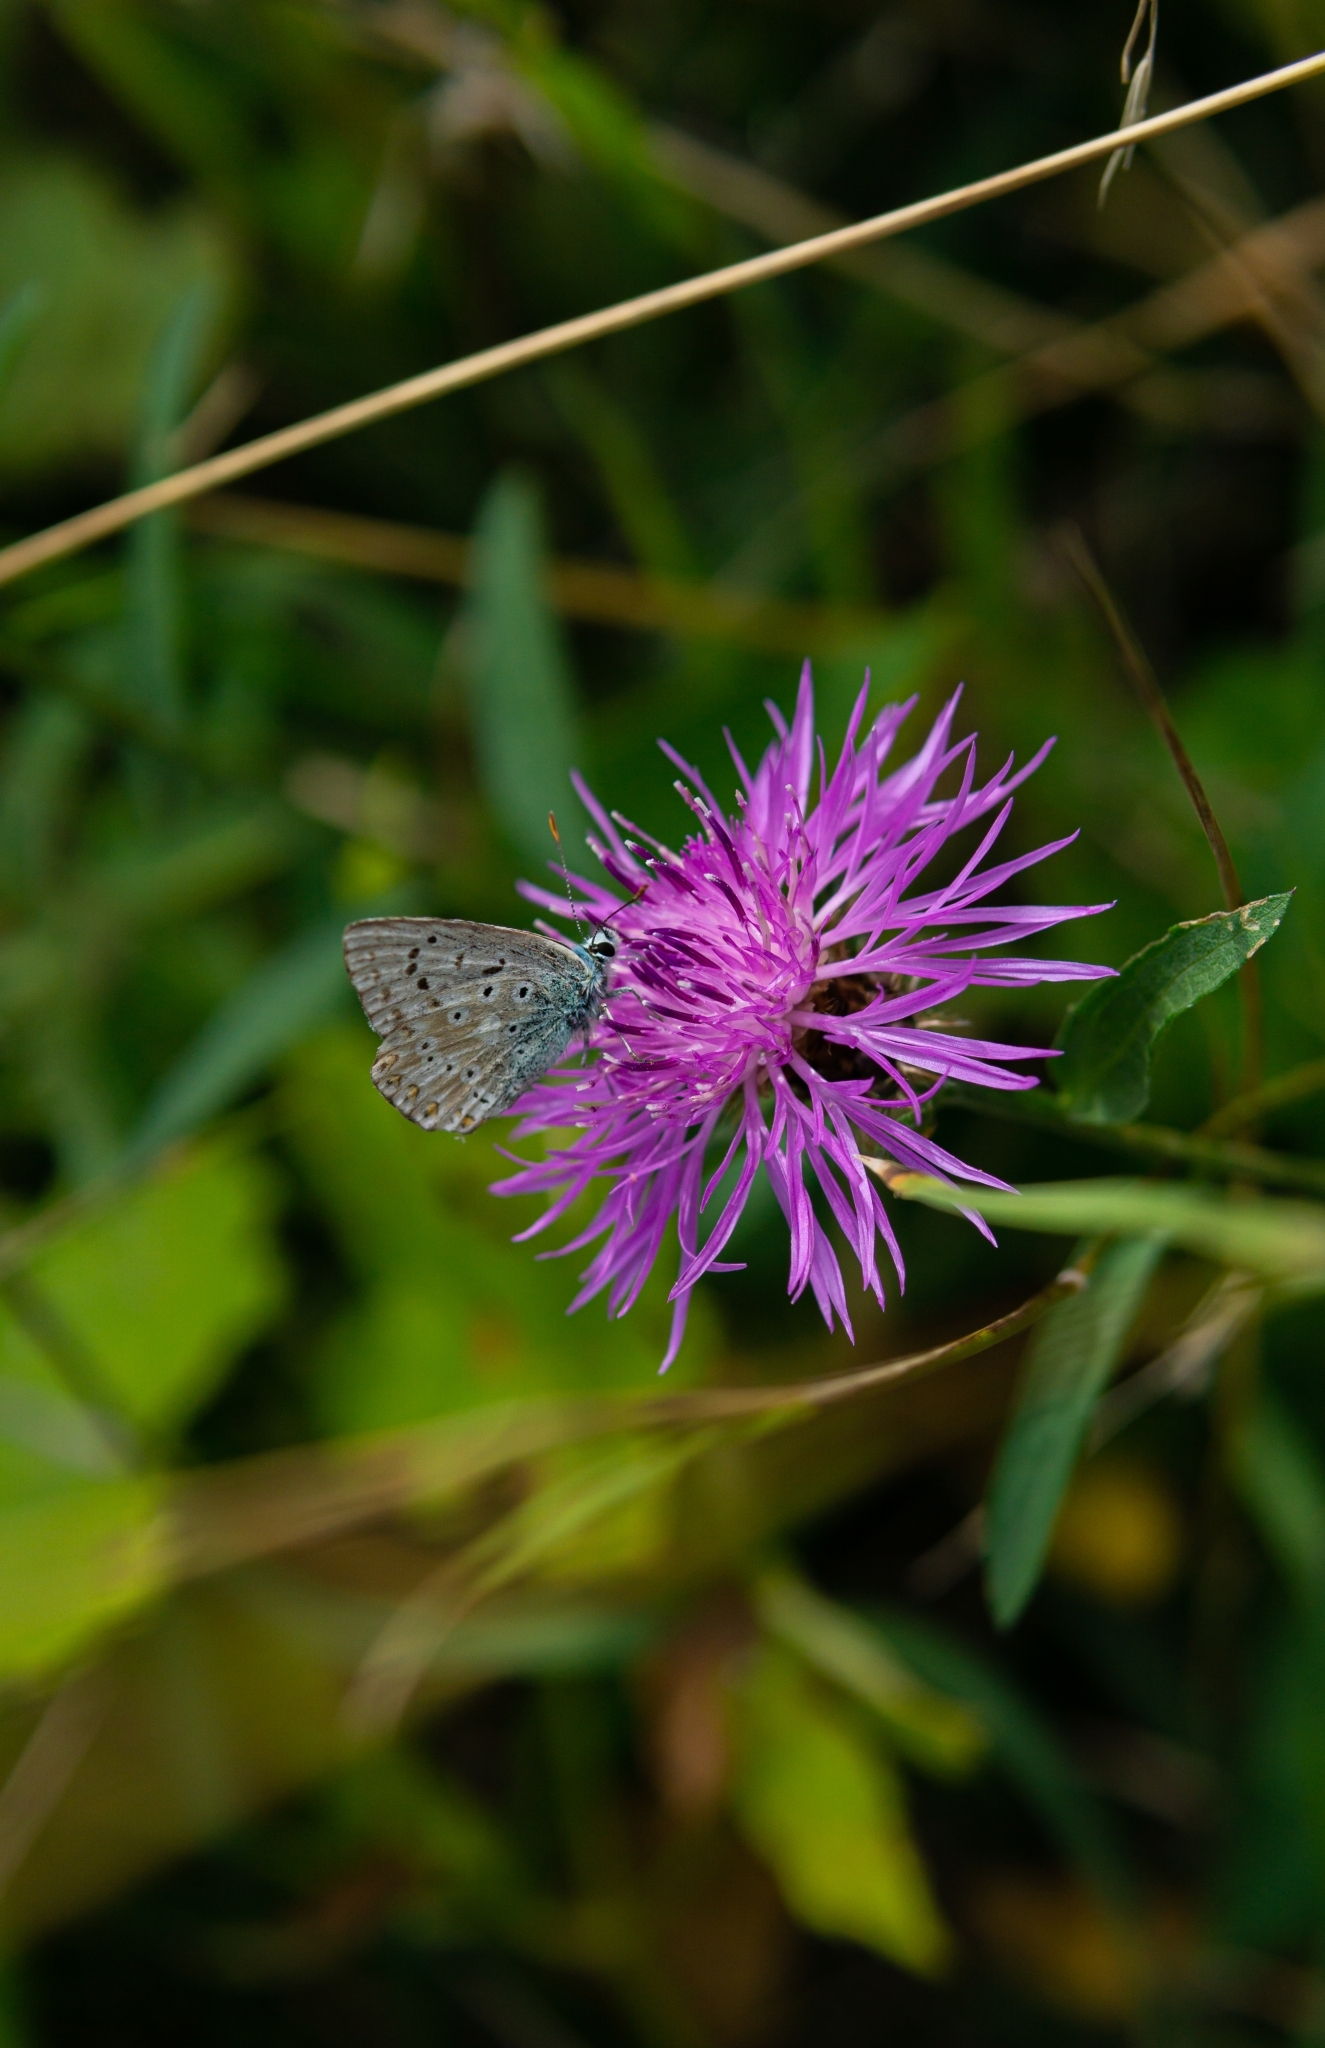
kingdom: Animalia
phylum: Arthropoda
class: Insecta
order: Lepidoptera
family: Lycaenidae
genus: Lysandra
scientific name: Lysandra coridon
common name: Chalkhill blue
